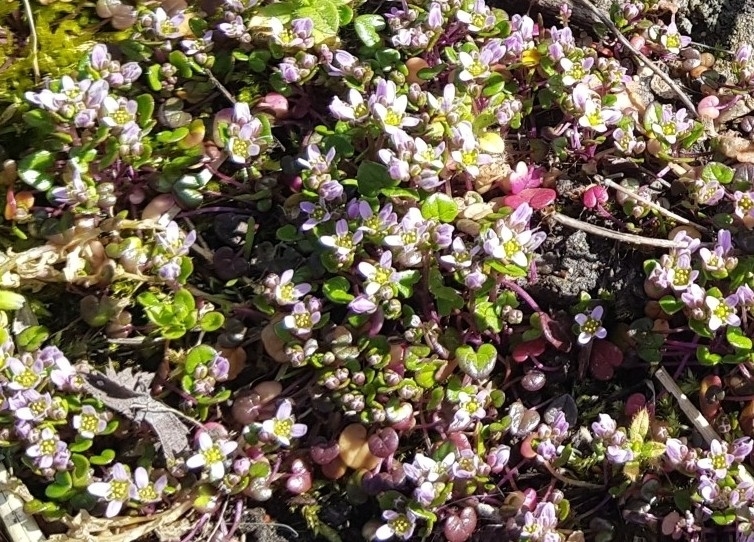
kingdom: Plantae
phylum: Tracheophyta
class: Magnoliopsida
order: Brassicales
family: Brassicaceae
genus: Cochlearia
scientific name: Cochlearia danica
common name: Early scurvygrass
